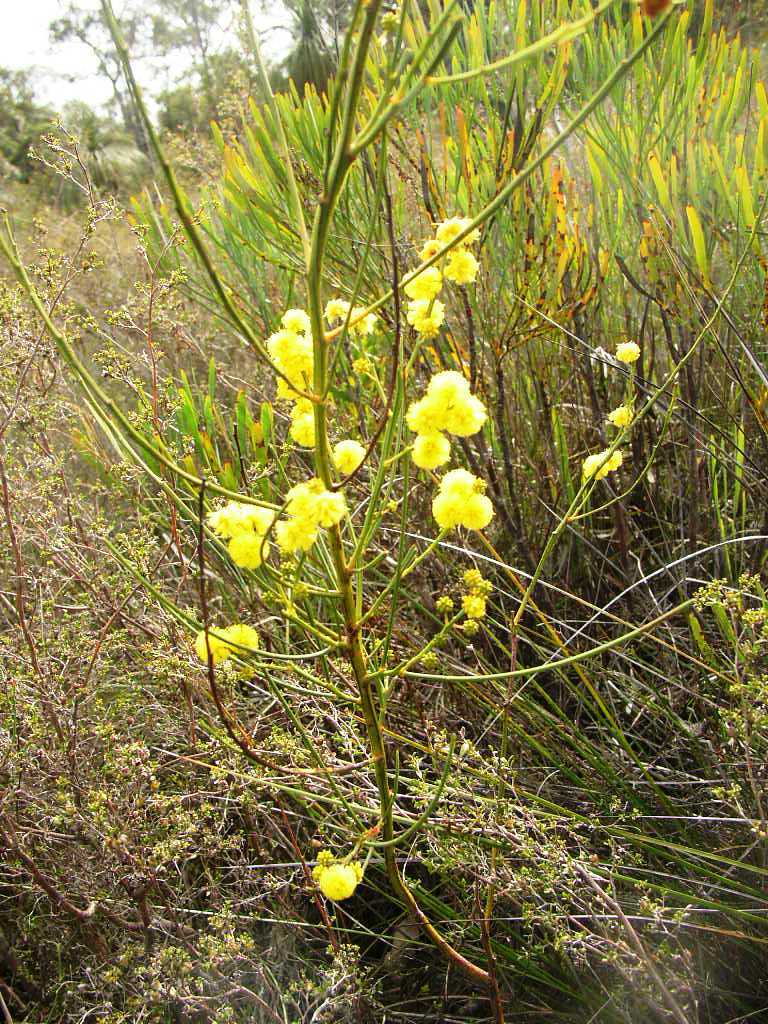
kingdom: Plantae
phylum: Tracheophyta
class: Magnoliopsida
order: Fabales
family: Fabaceae
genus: Acacia
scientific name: Acacia extensa
